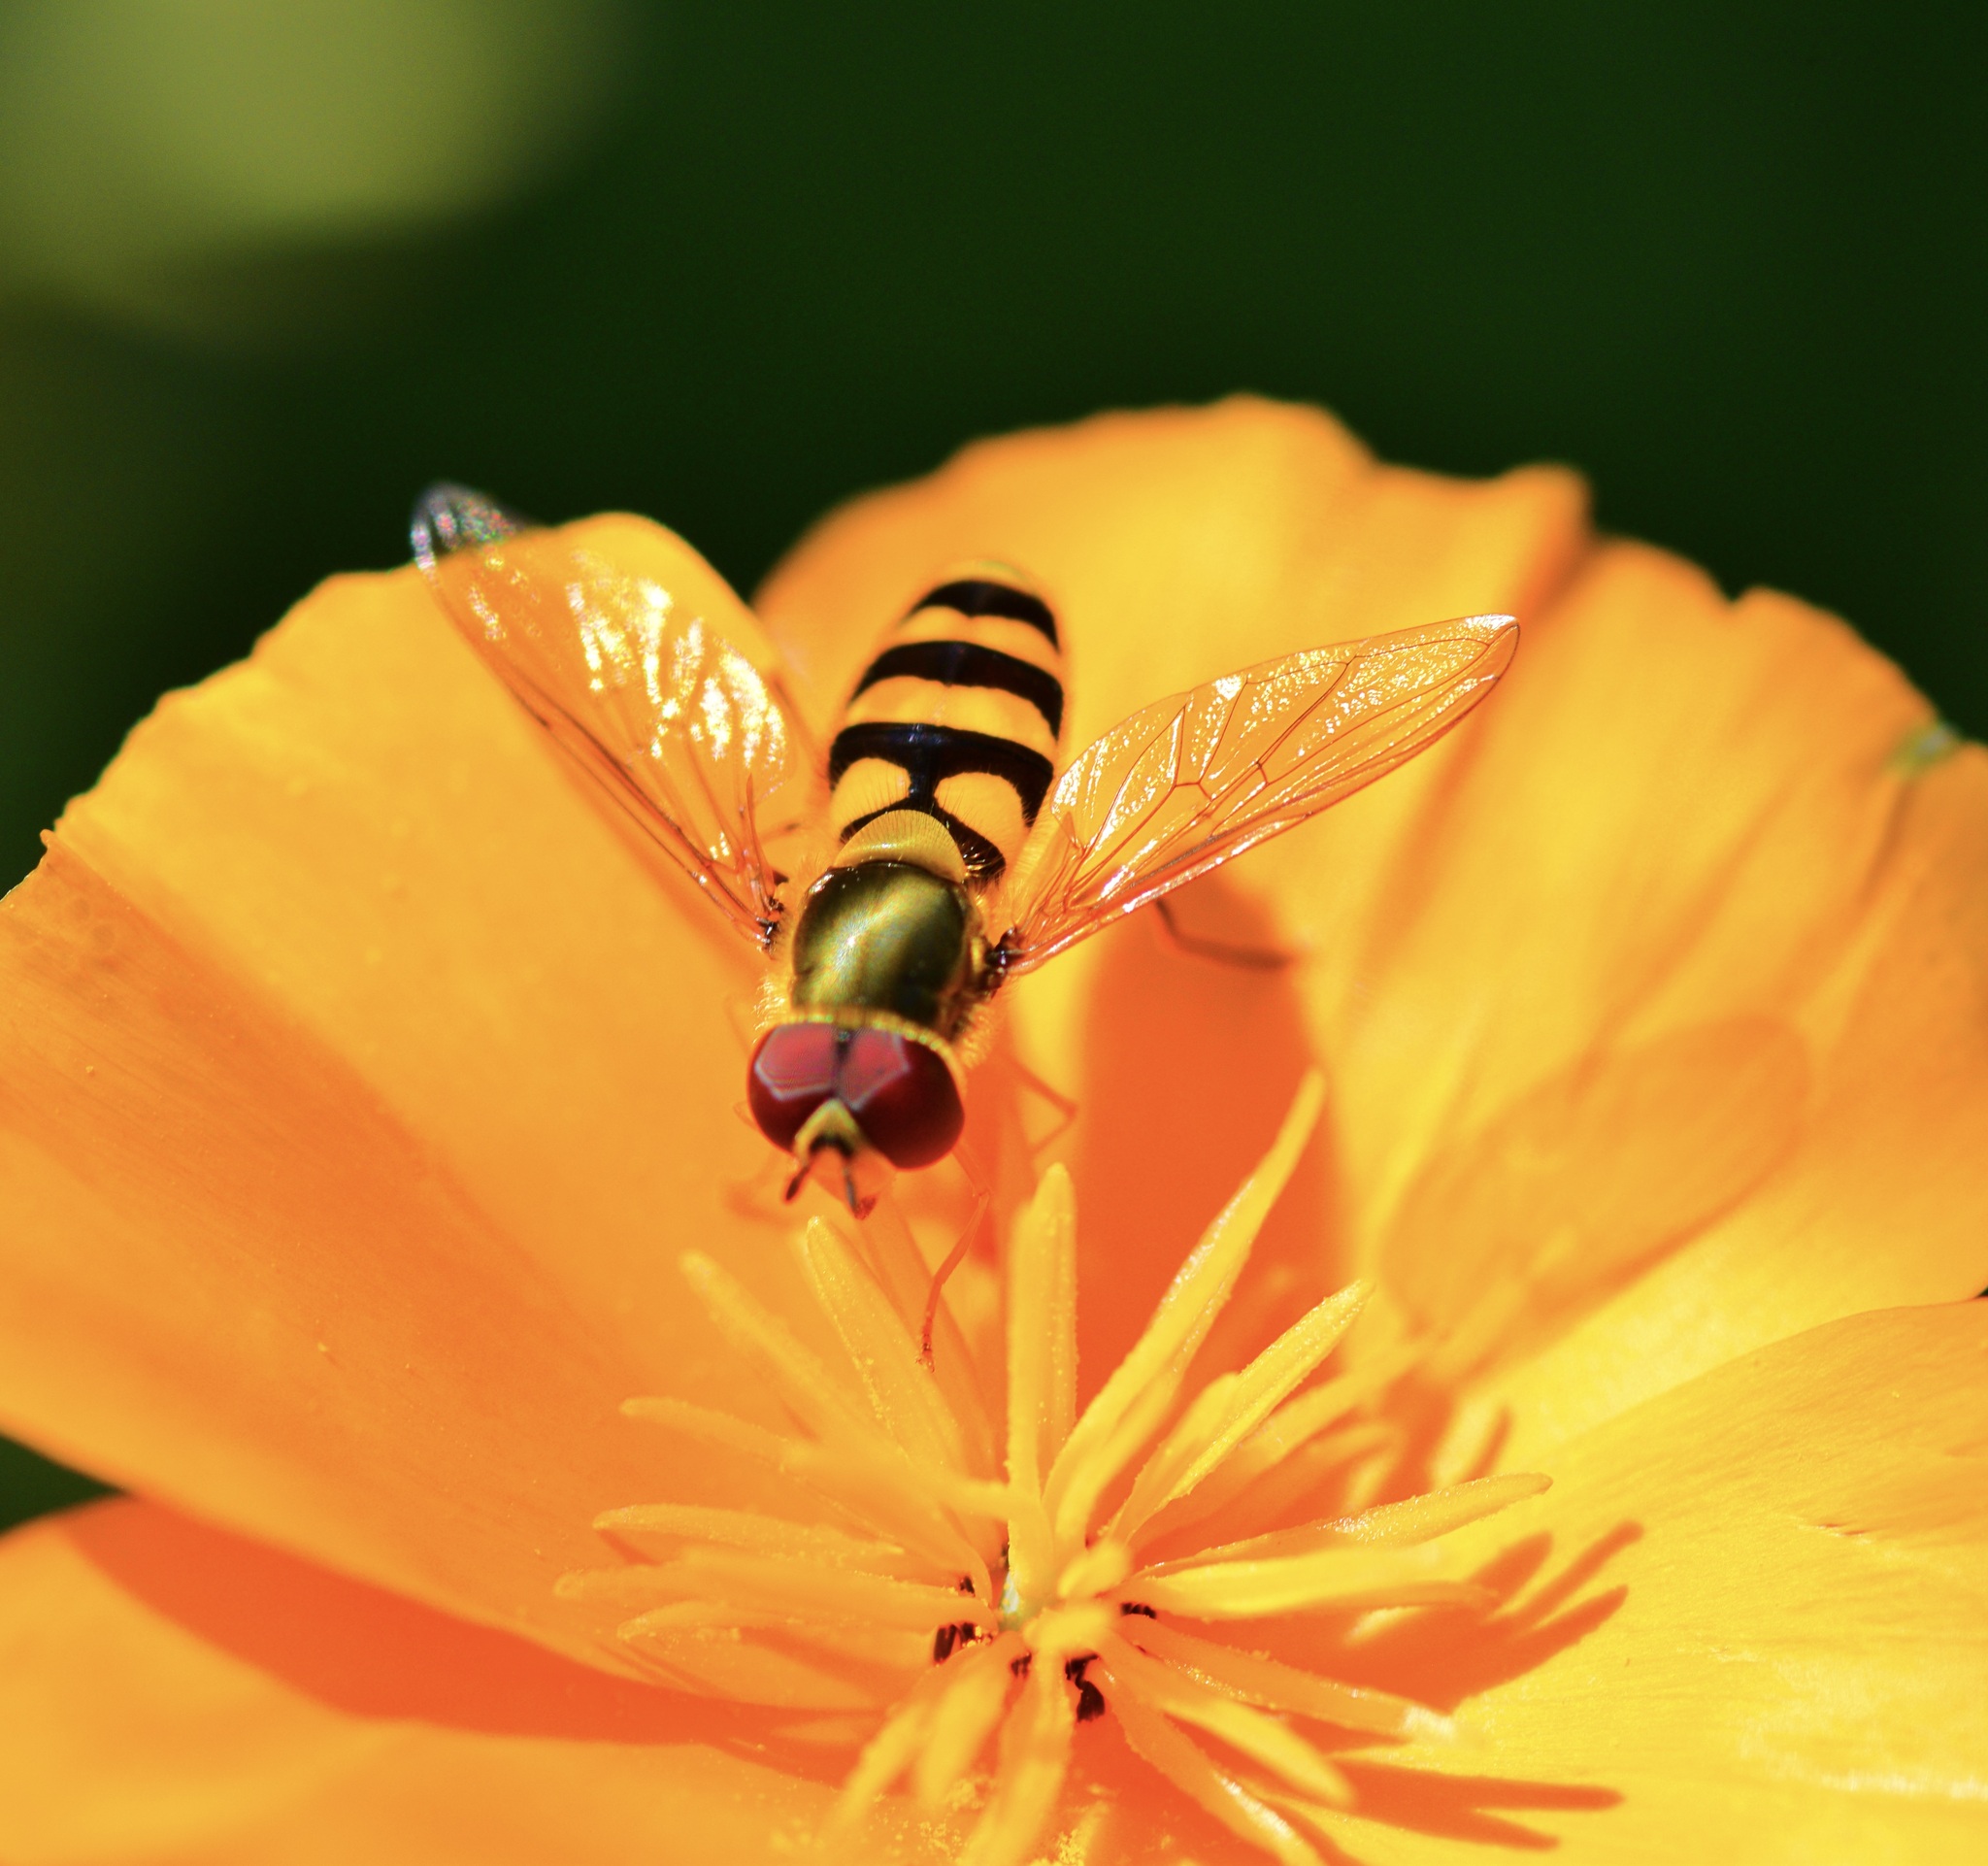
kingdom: Animalia
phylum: Arthropoda
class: Insecta
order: Diptera
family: Syrphidae
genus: Syrphus
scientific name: Syrphus
